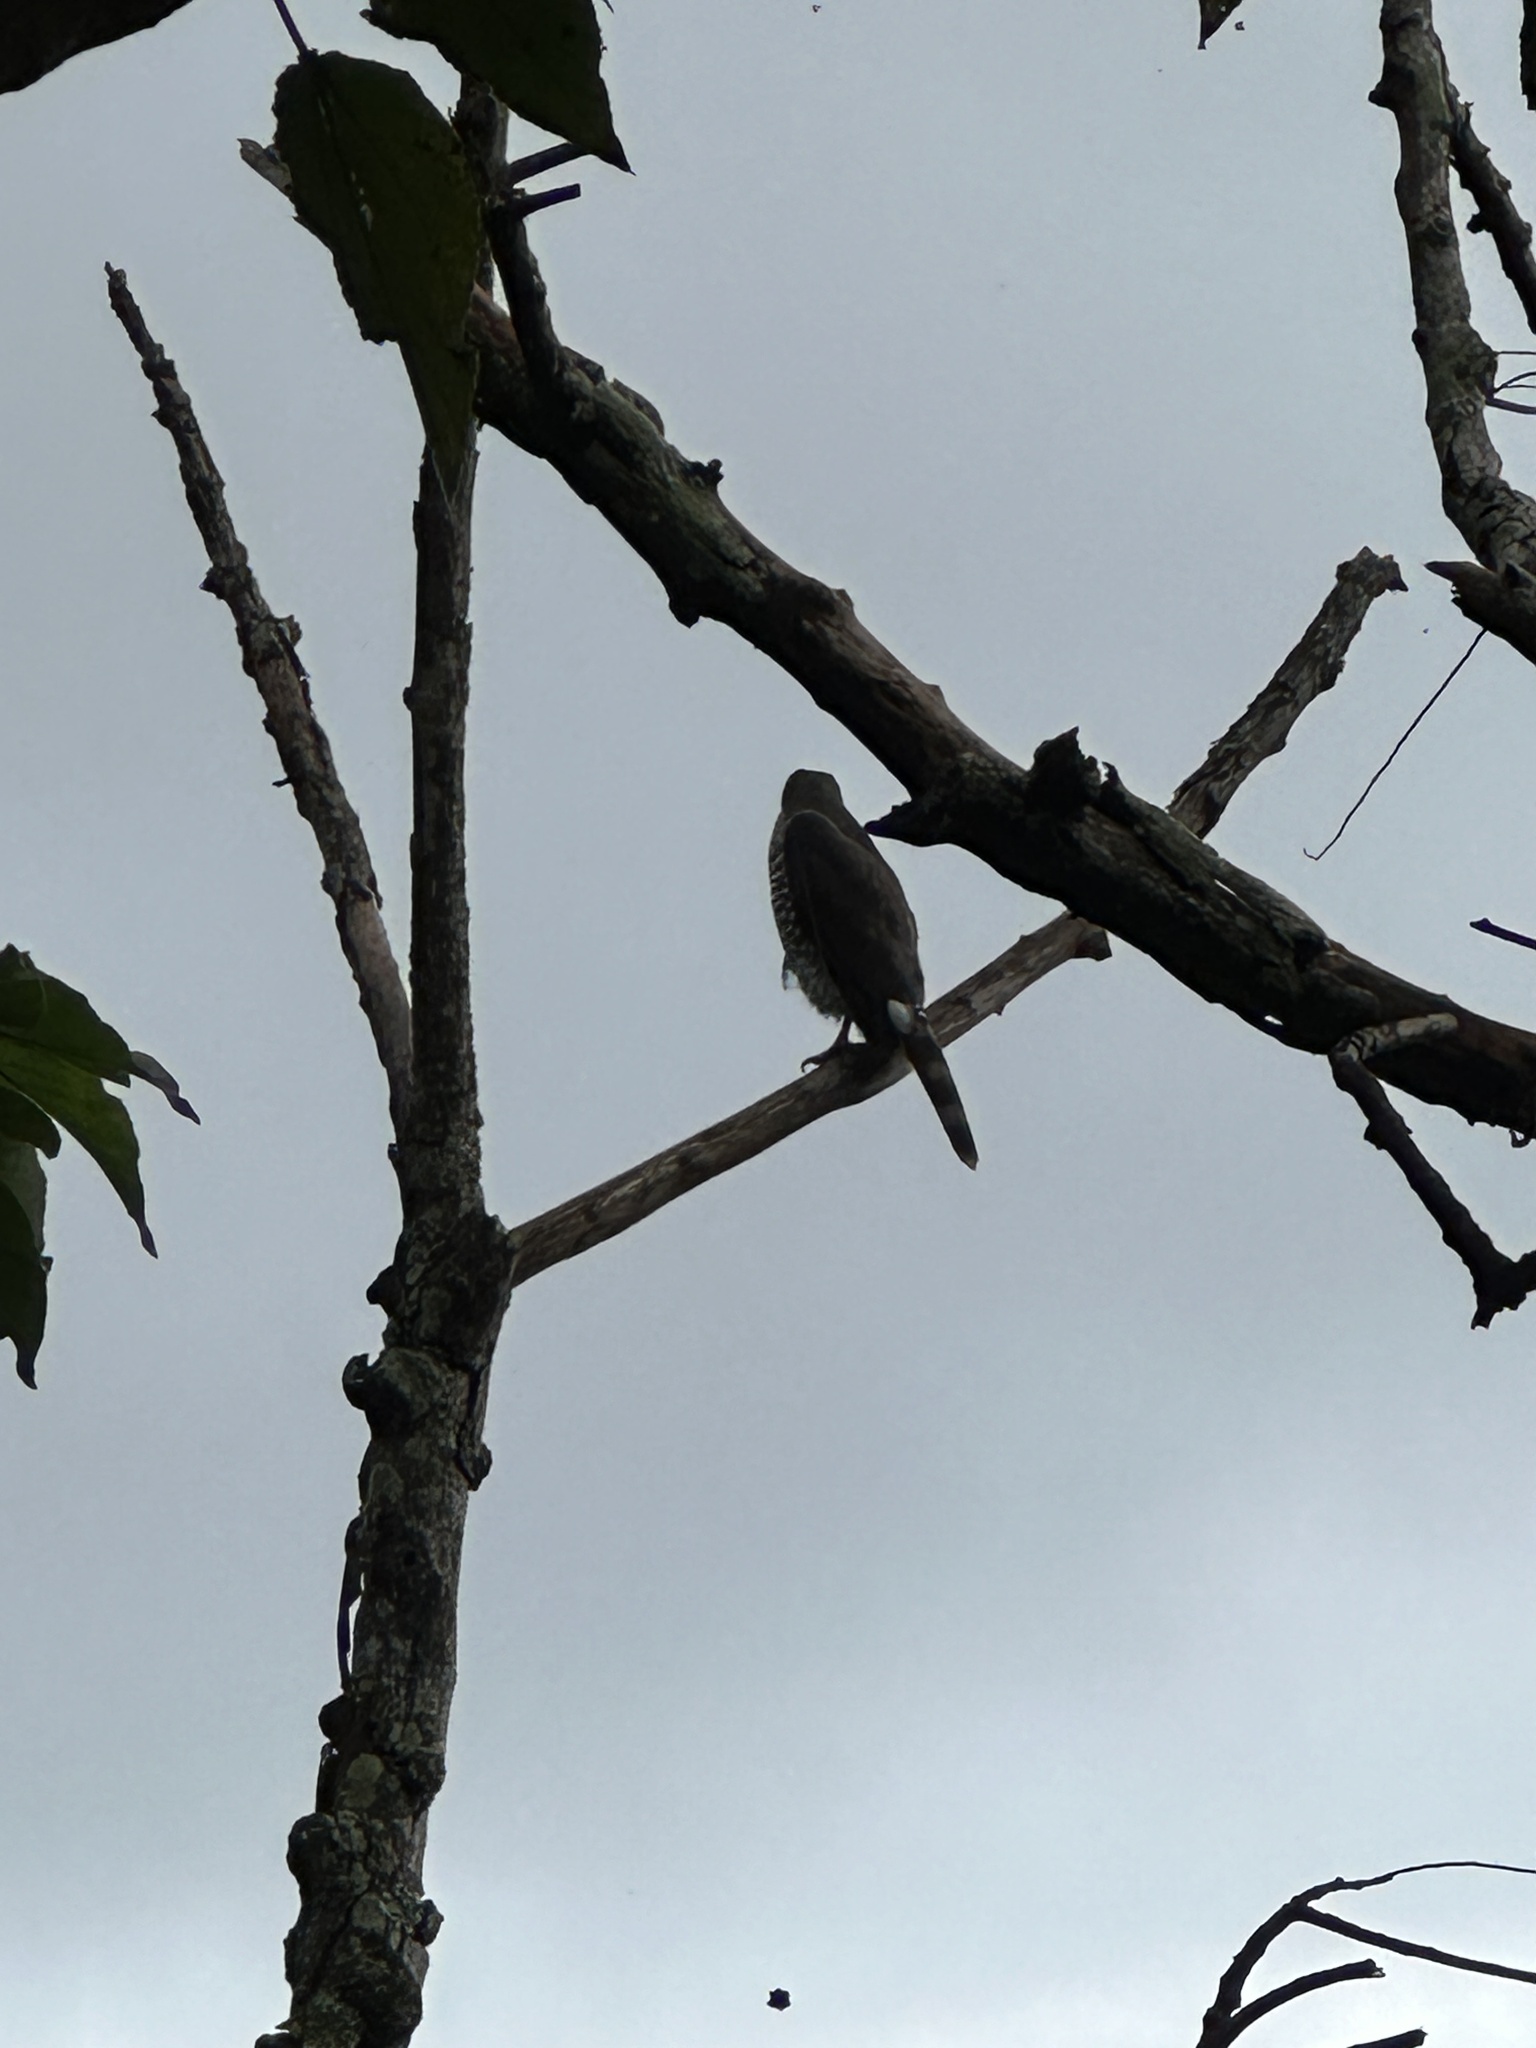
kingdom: Animalia
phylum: Chordata
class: Aves
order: Accipitriformes
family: Accipitridae
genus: Accipiter
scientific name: Accipiter trivirgatus
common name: Crested goshawk
